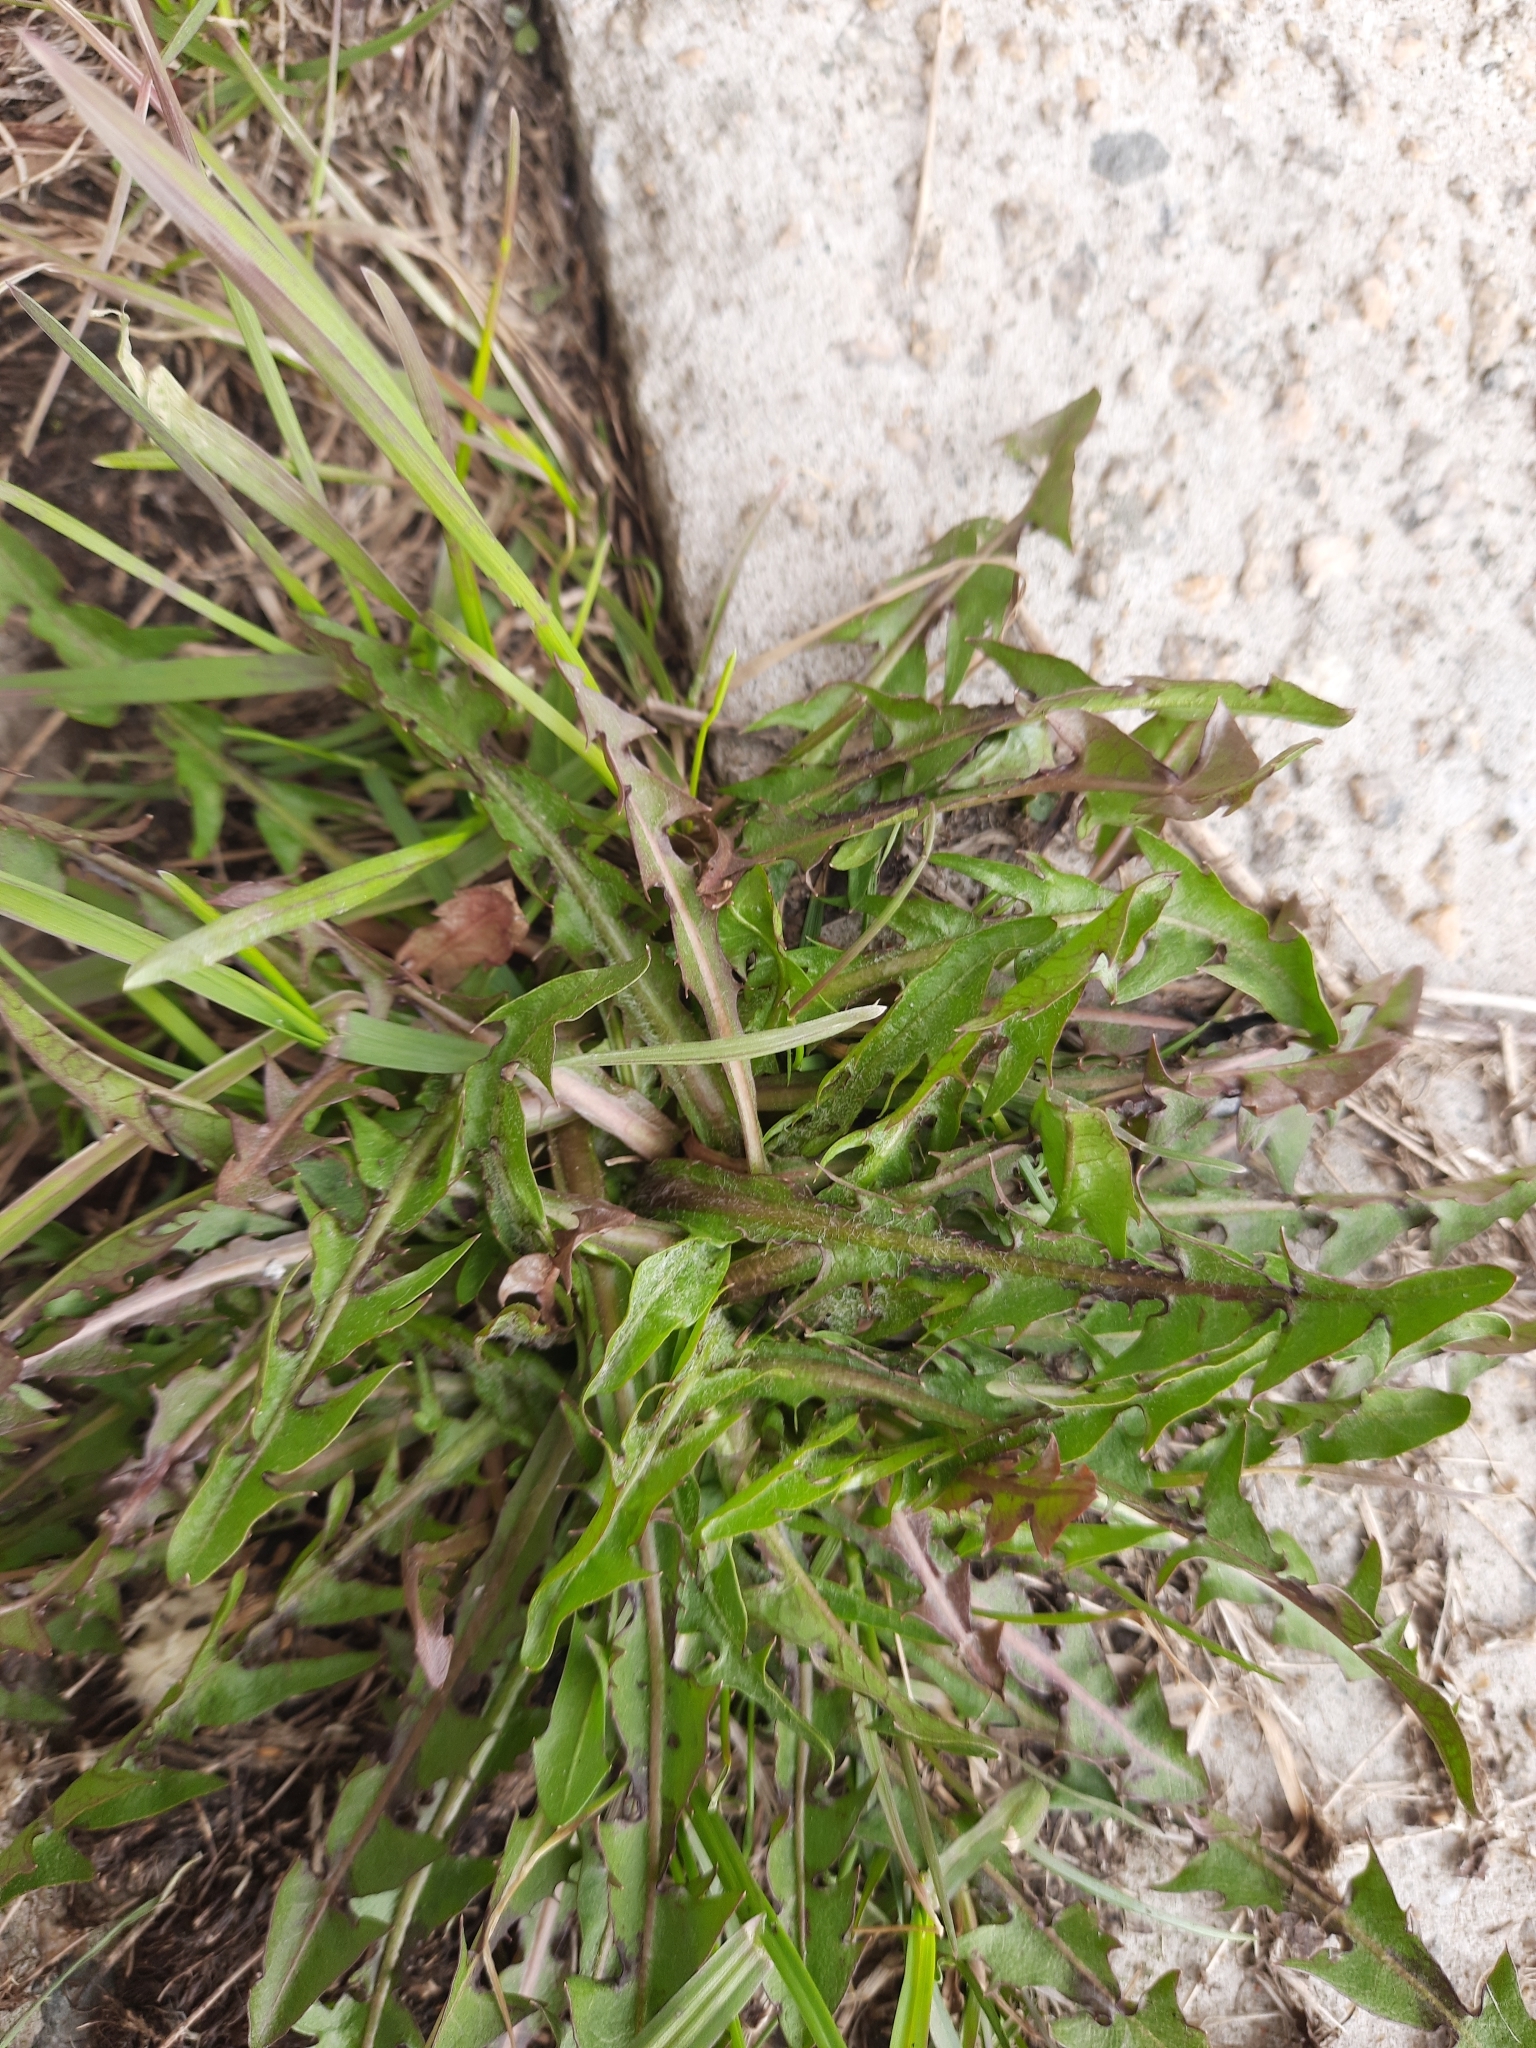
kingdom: Plantae
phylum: Tracheophyta
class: Magnoliopsida
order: Asterales
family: Asteraceae
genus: Taraxacum
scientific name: Taraxacum officinale
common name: Common dandelion
